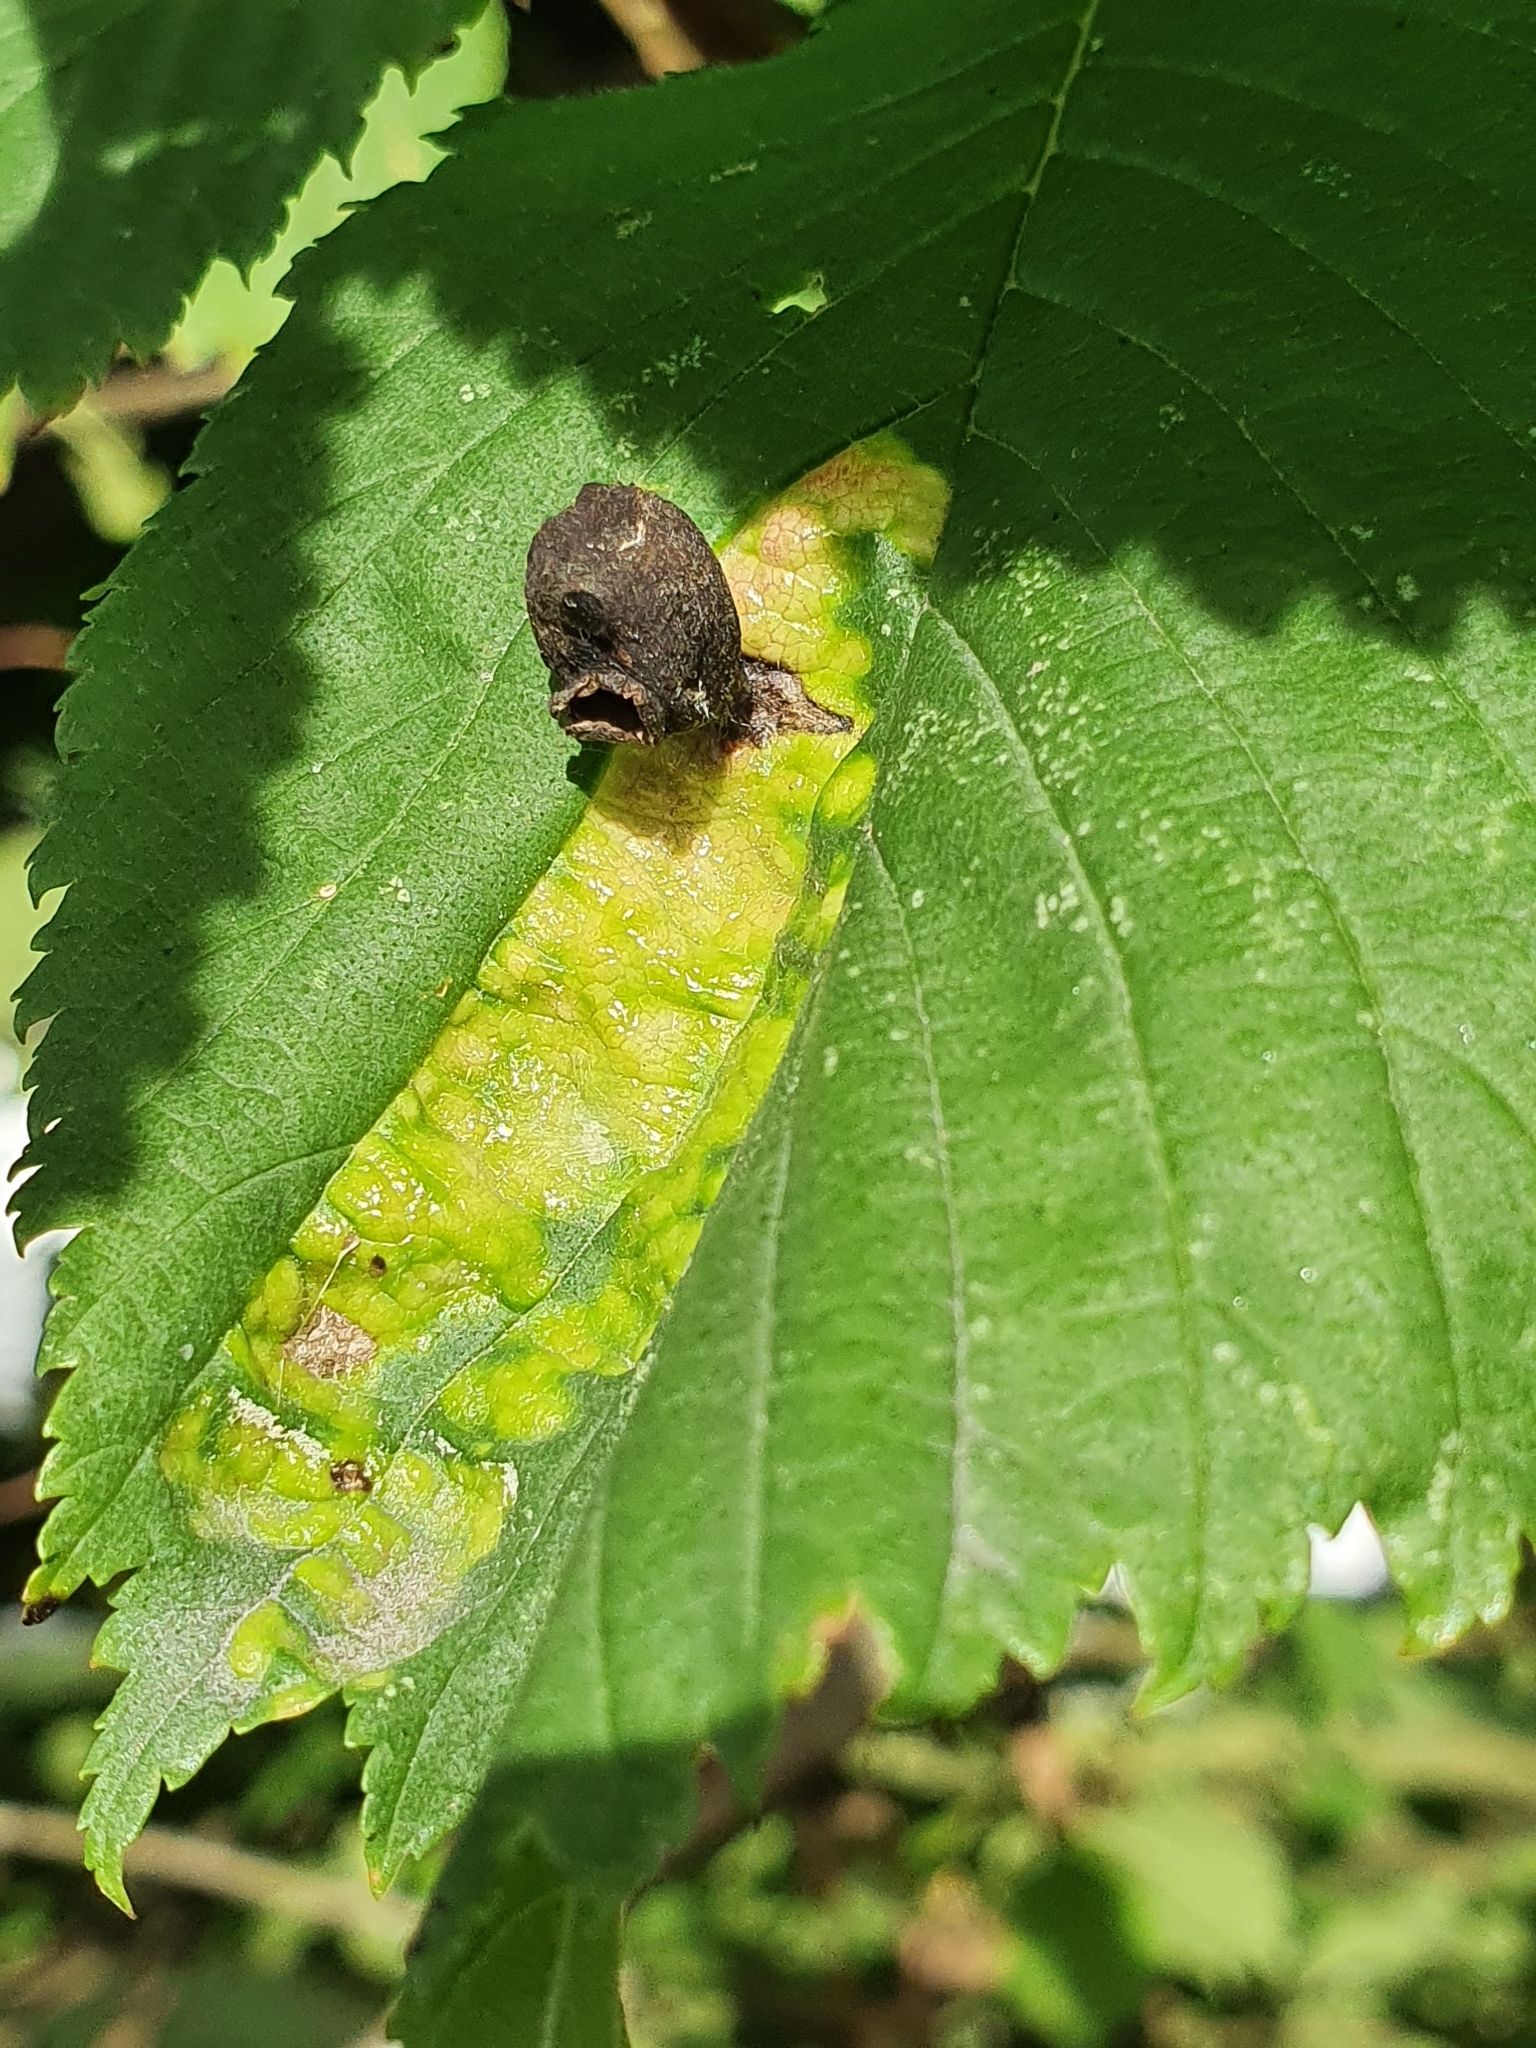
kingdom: Animalia
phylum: Arthropoda
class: Insecta
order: Hemiptera
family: Aphididae
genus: Tetraneura
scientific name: Tetraneura ulmi
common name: Aphid
